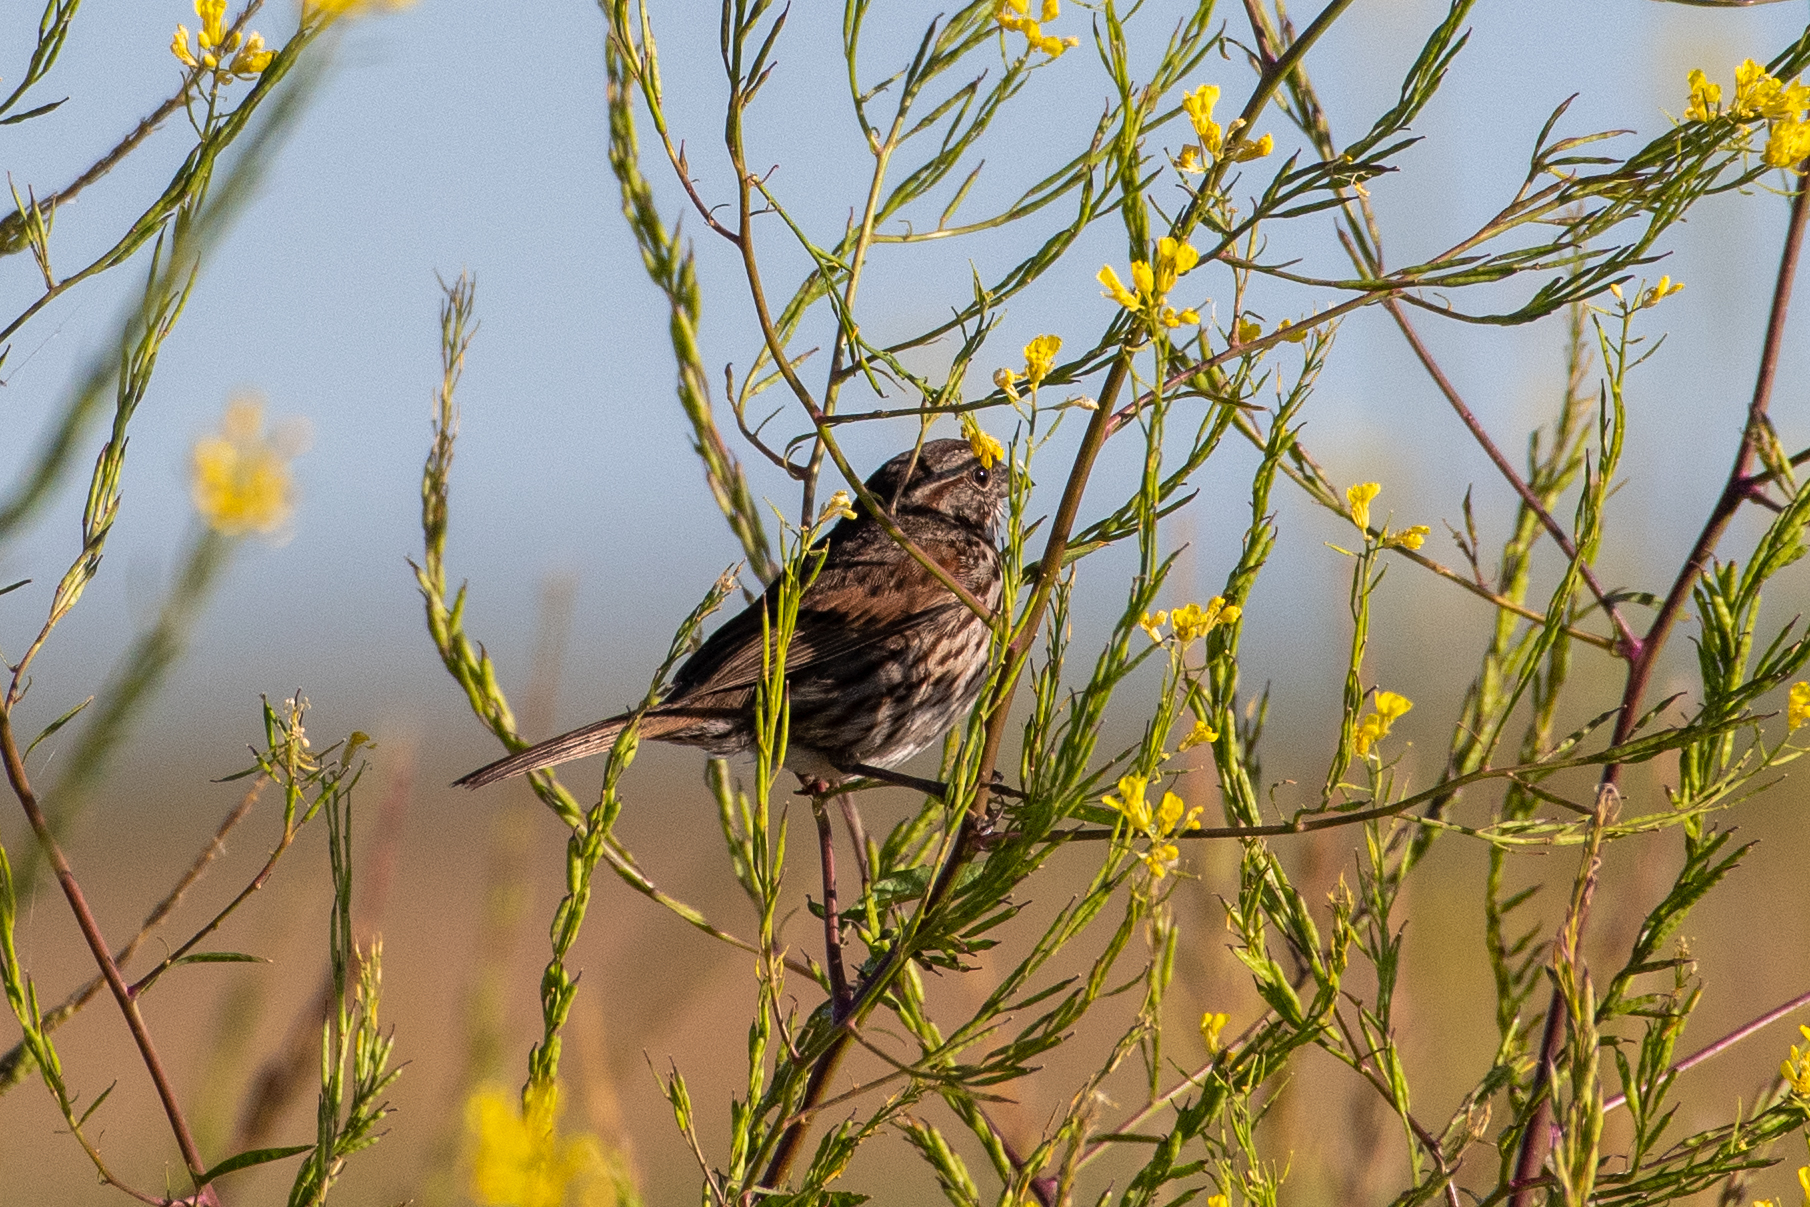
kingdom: Animalia
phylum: Chordata
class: Aves
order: Passeriformes
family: Passerellidae
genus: Melospiza
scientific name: Melospiza melodia
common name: Song sparrow
